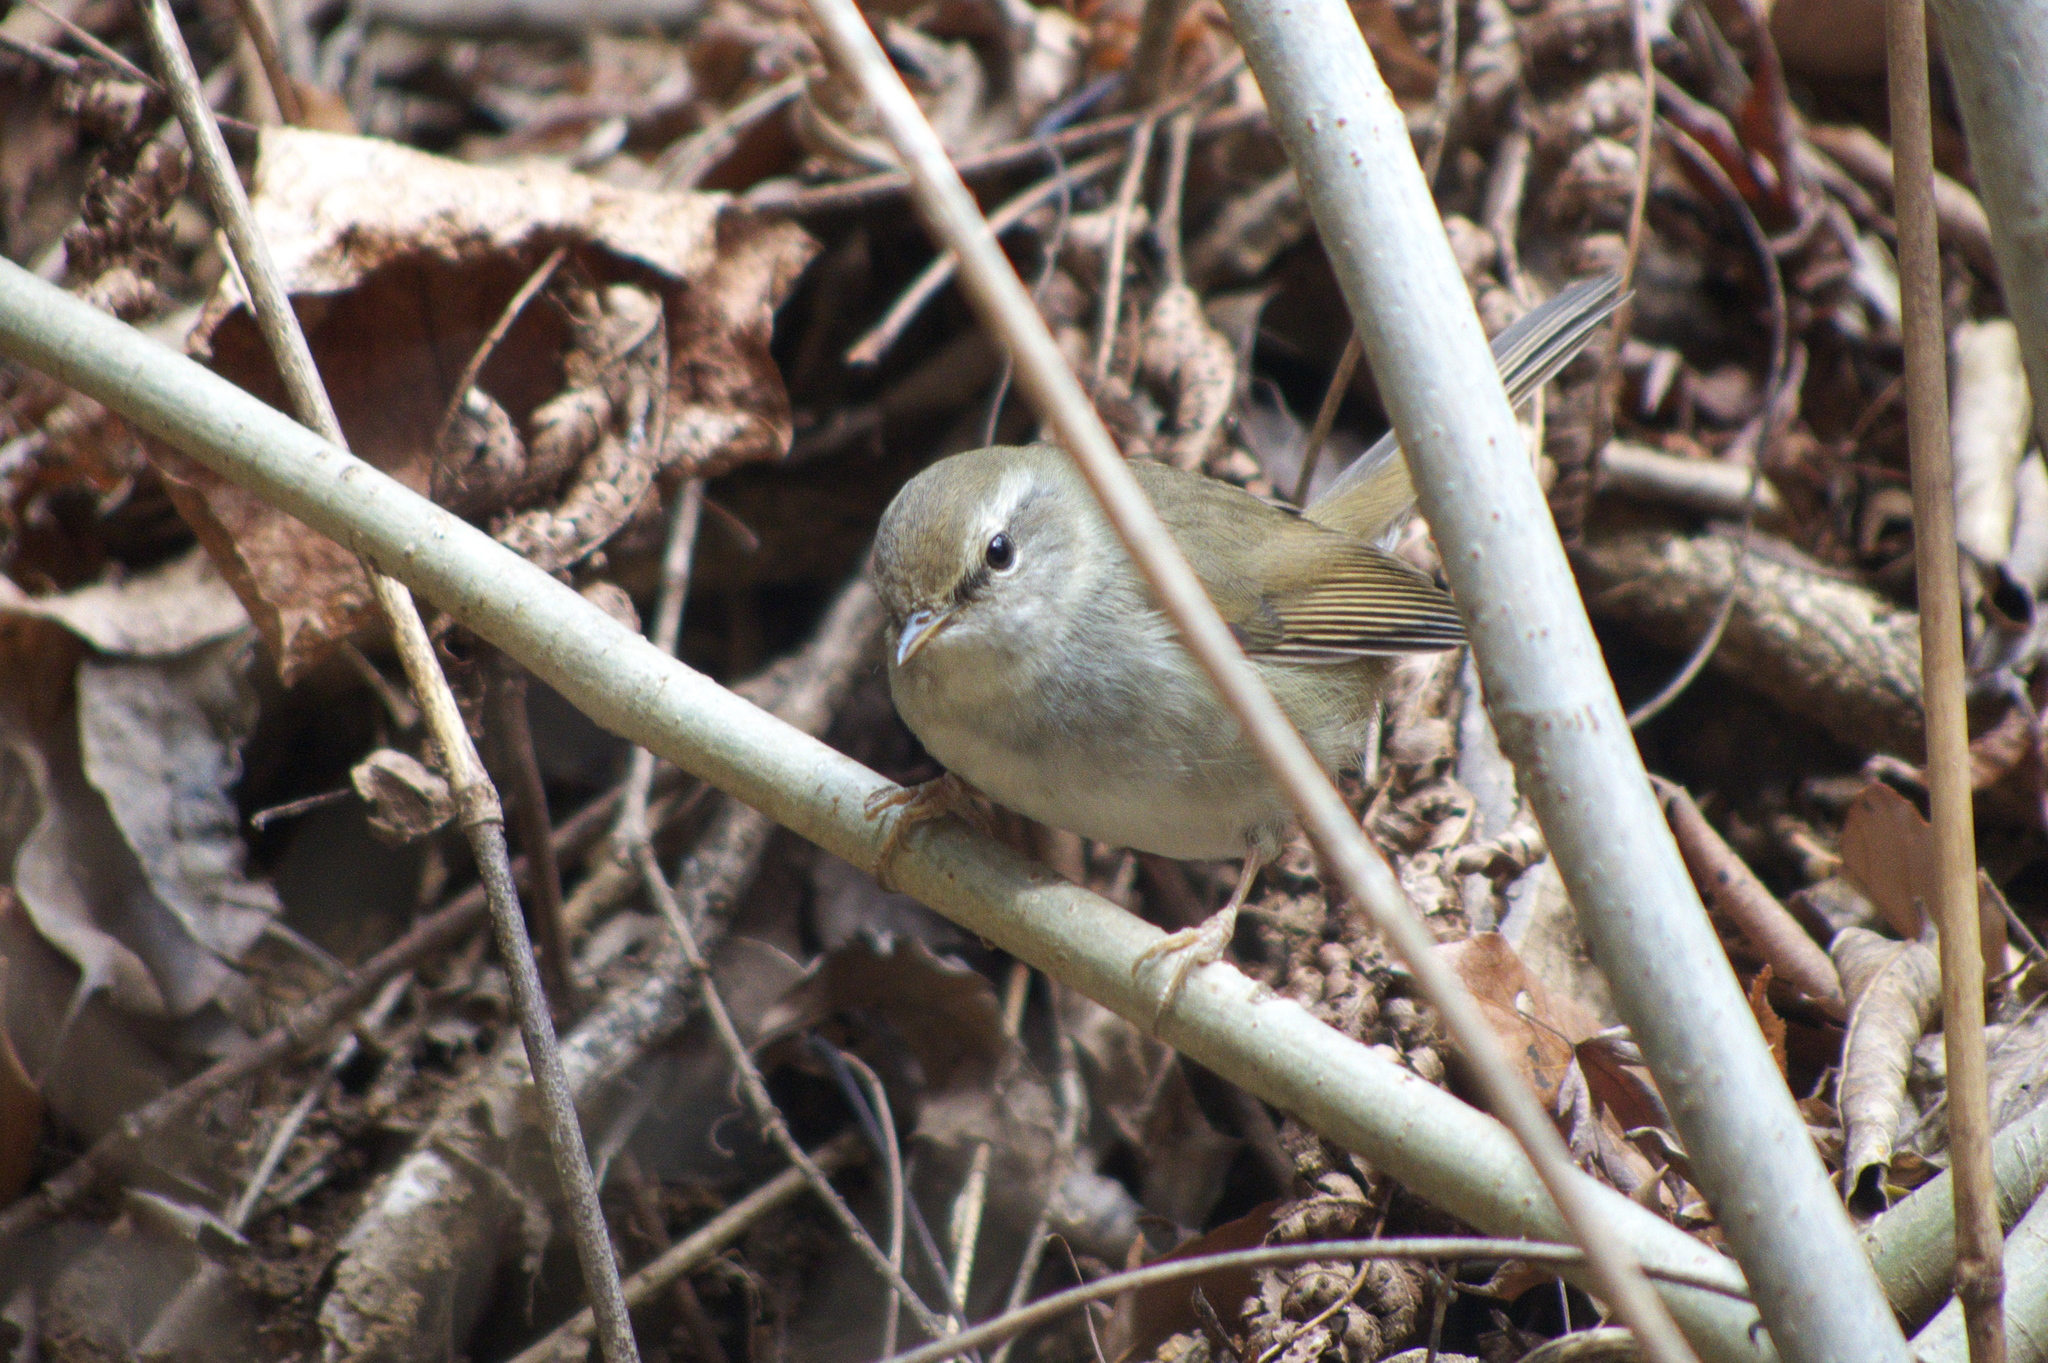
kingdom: Animalia
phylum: Chordata
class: Aves
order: Passeriformes
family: Cettiidae
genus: Horornis
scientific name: Horornis diphone
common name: Japanese bush warbler
